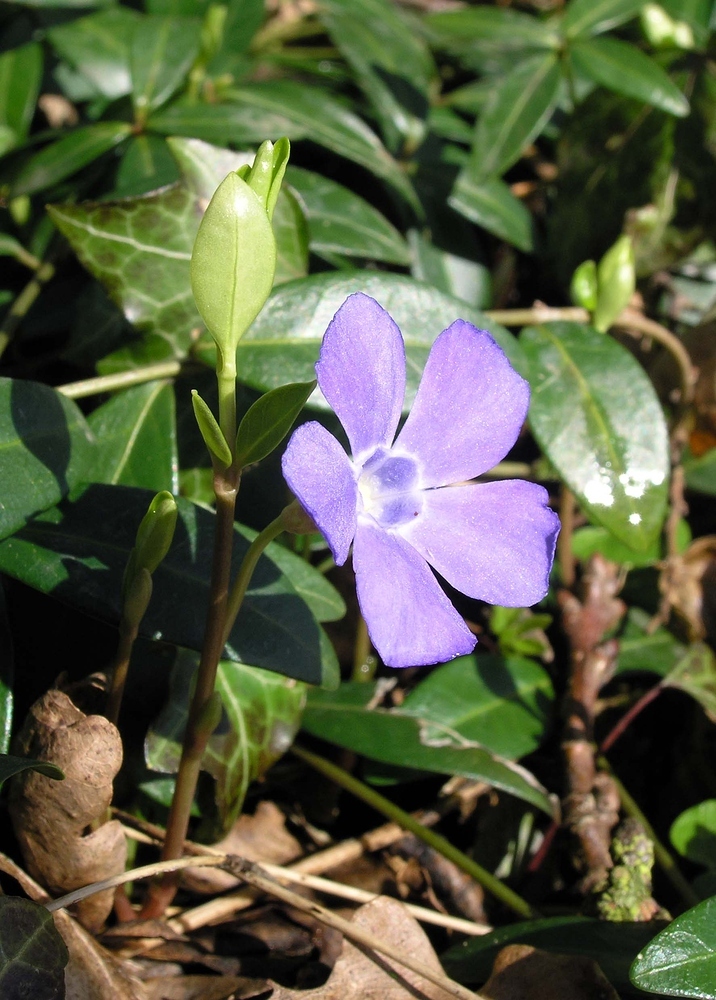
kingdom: Plantae
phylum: Tracheophyta
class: Magnoliopsida
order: Gentianales
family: Apocynaceae
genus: Vinca
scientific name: Vinca minor
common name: Lesser periwinkle
